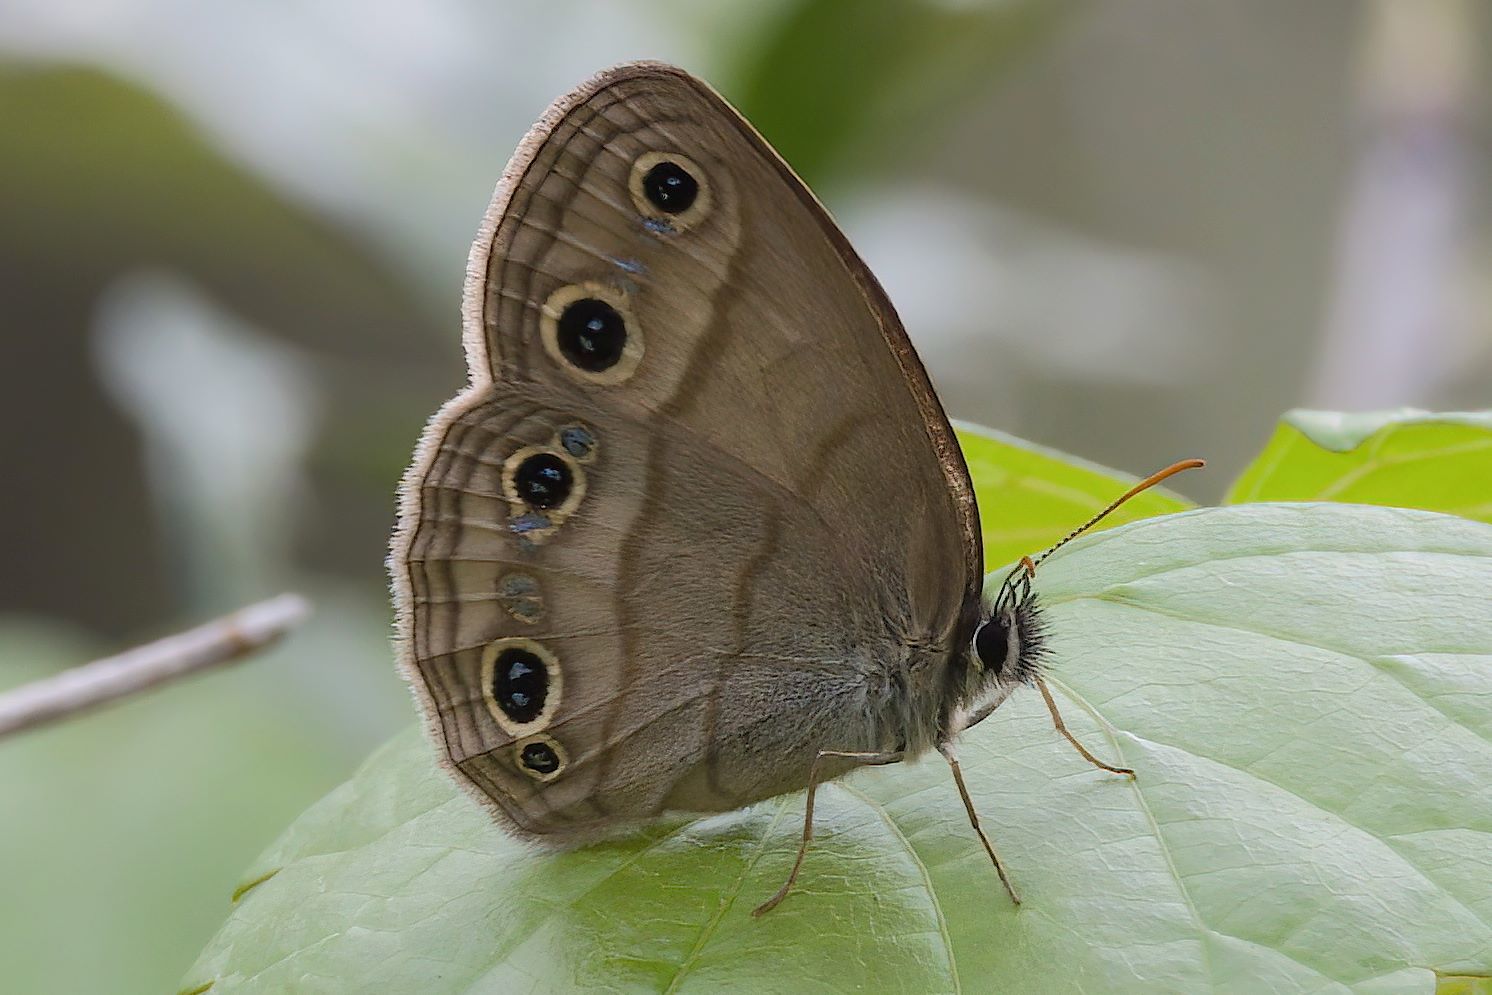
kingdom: Animalia
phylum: Arthropoda
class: Insecta
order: Lepidoptera
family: Nymphalidae
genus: Euptychia
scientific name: Euptychia cymela
